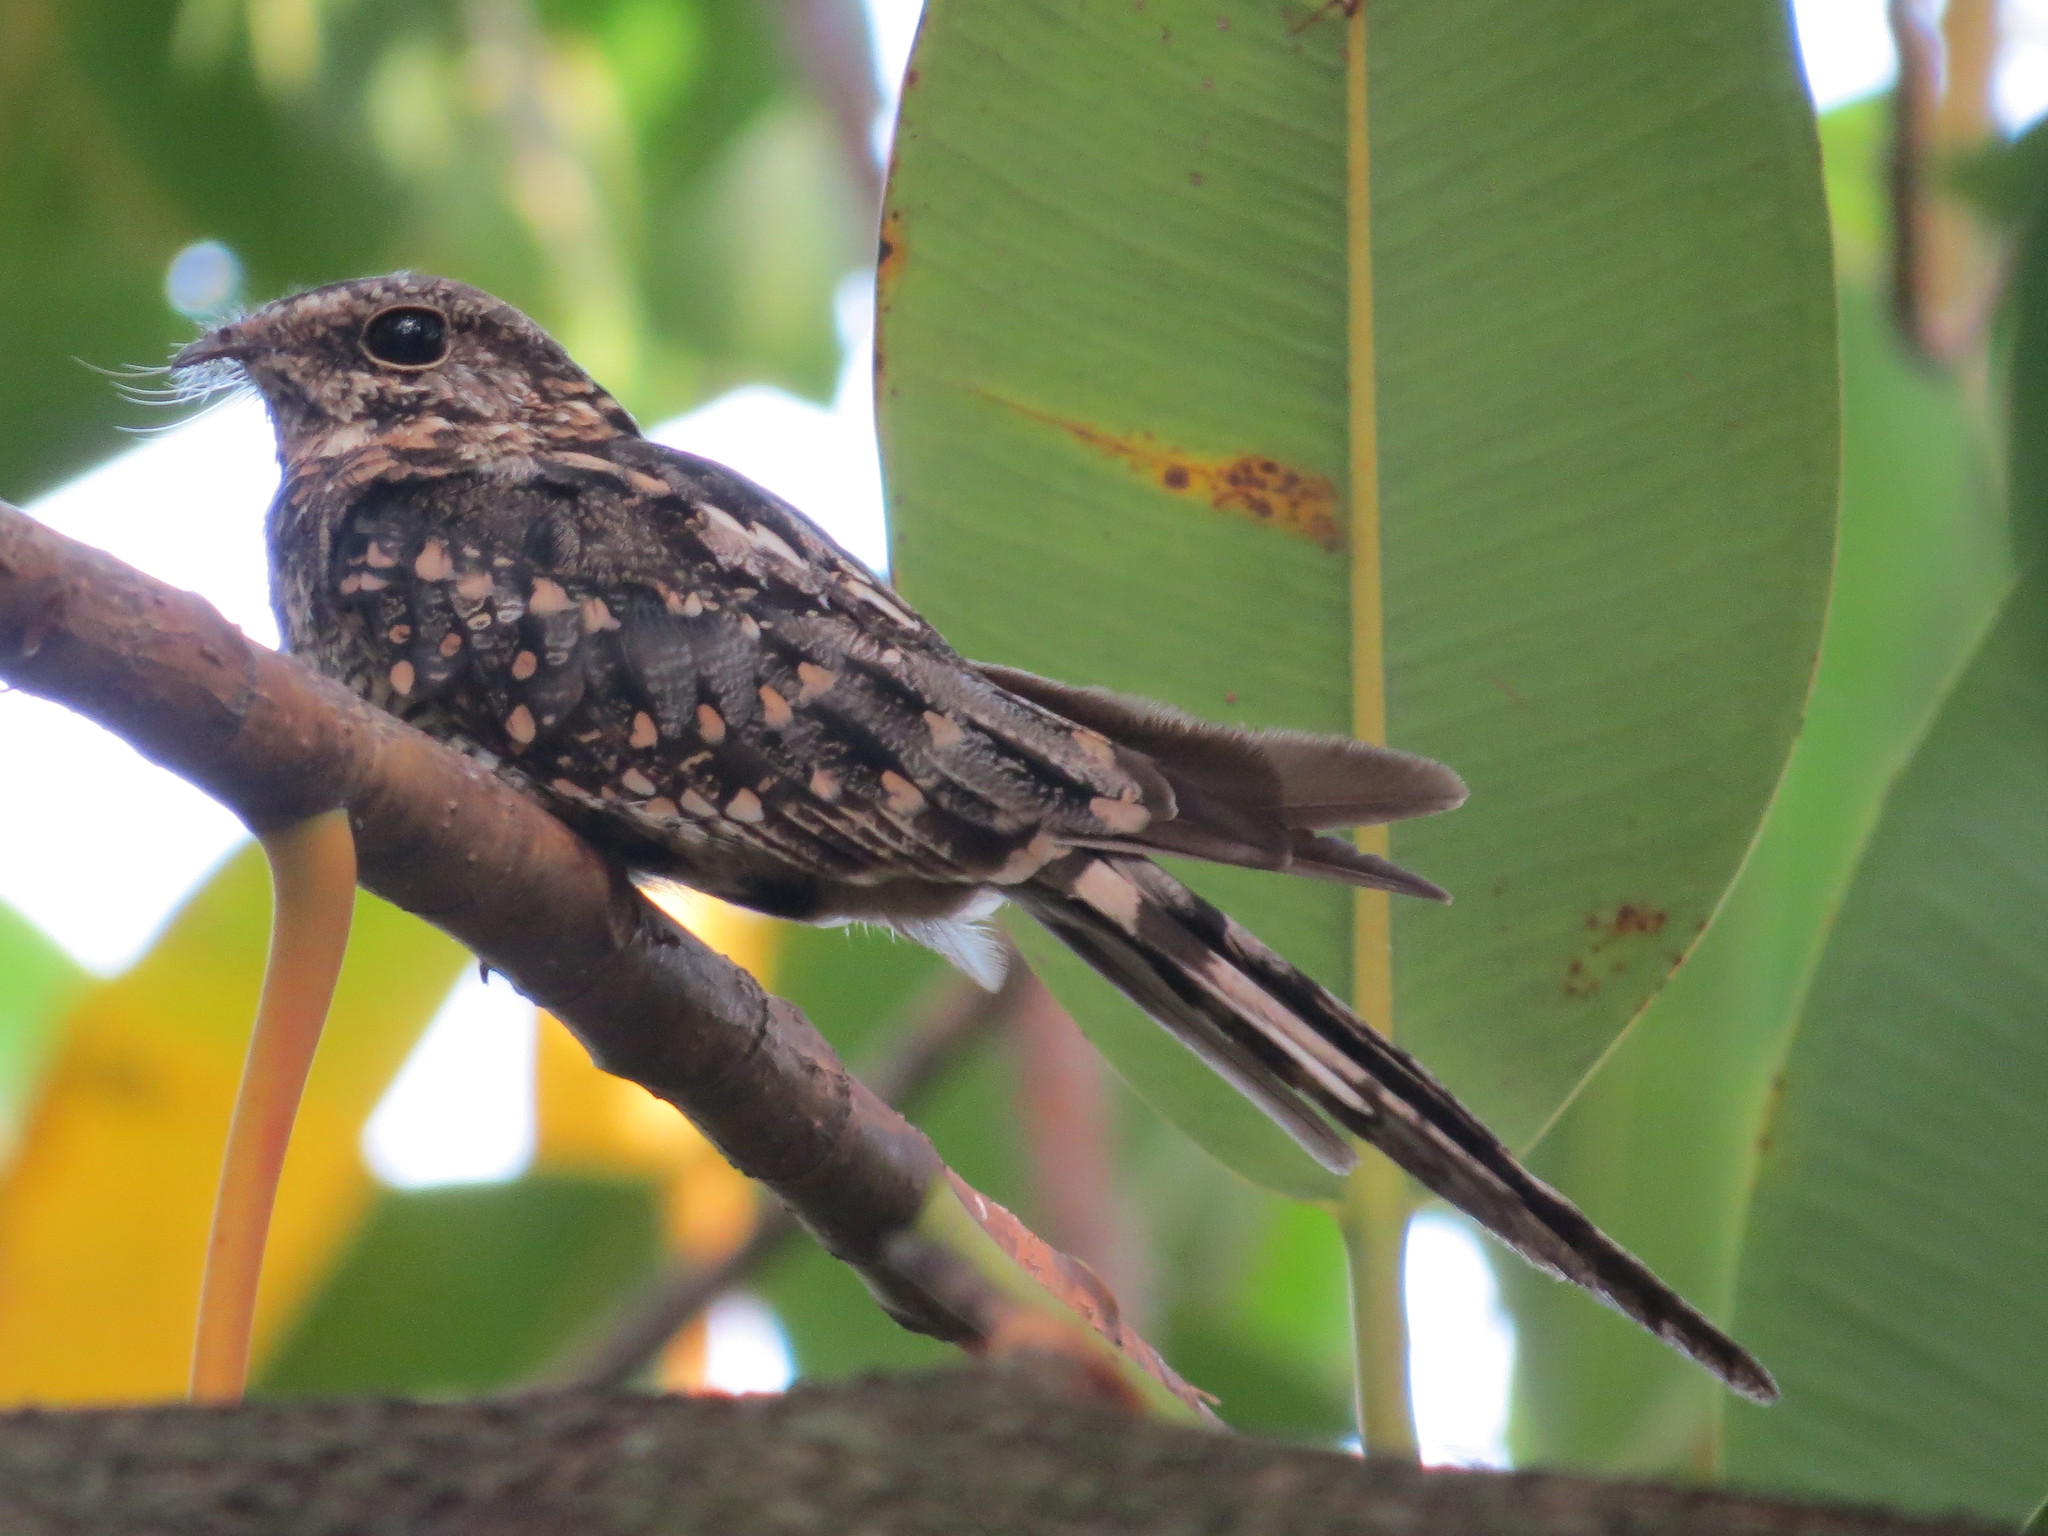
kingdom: Animalia
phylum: Chordata
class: Aves
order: Caprimulgiformes
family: Caprimulgidae
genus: Hydropsalis
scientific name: Hydropsalis torquata
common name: Scissor-tailed nightjar
